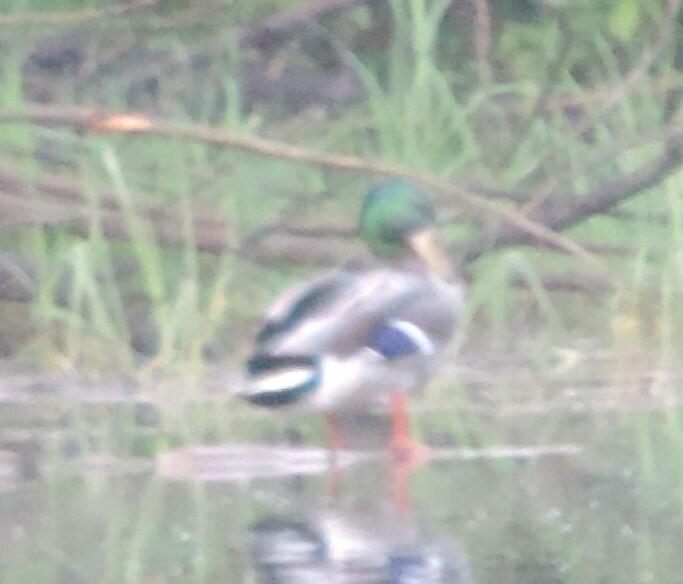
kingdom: Animalia
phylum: Chordata
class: Aves
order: Anseriformes
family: Anatidae
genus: Anas
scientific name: Anas platyrhynchos
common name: Mallard
